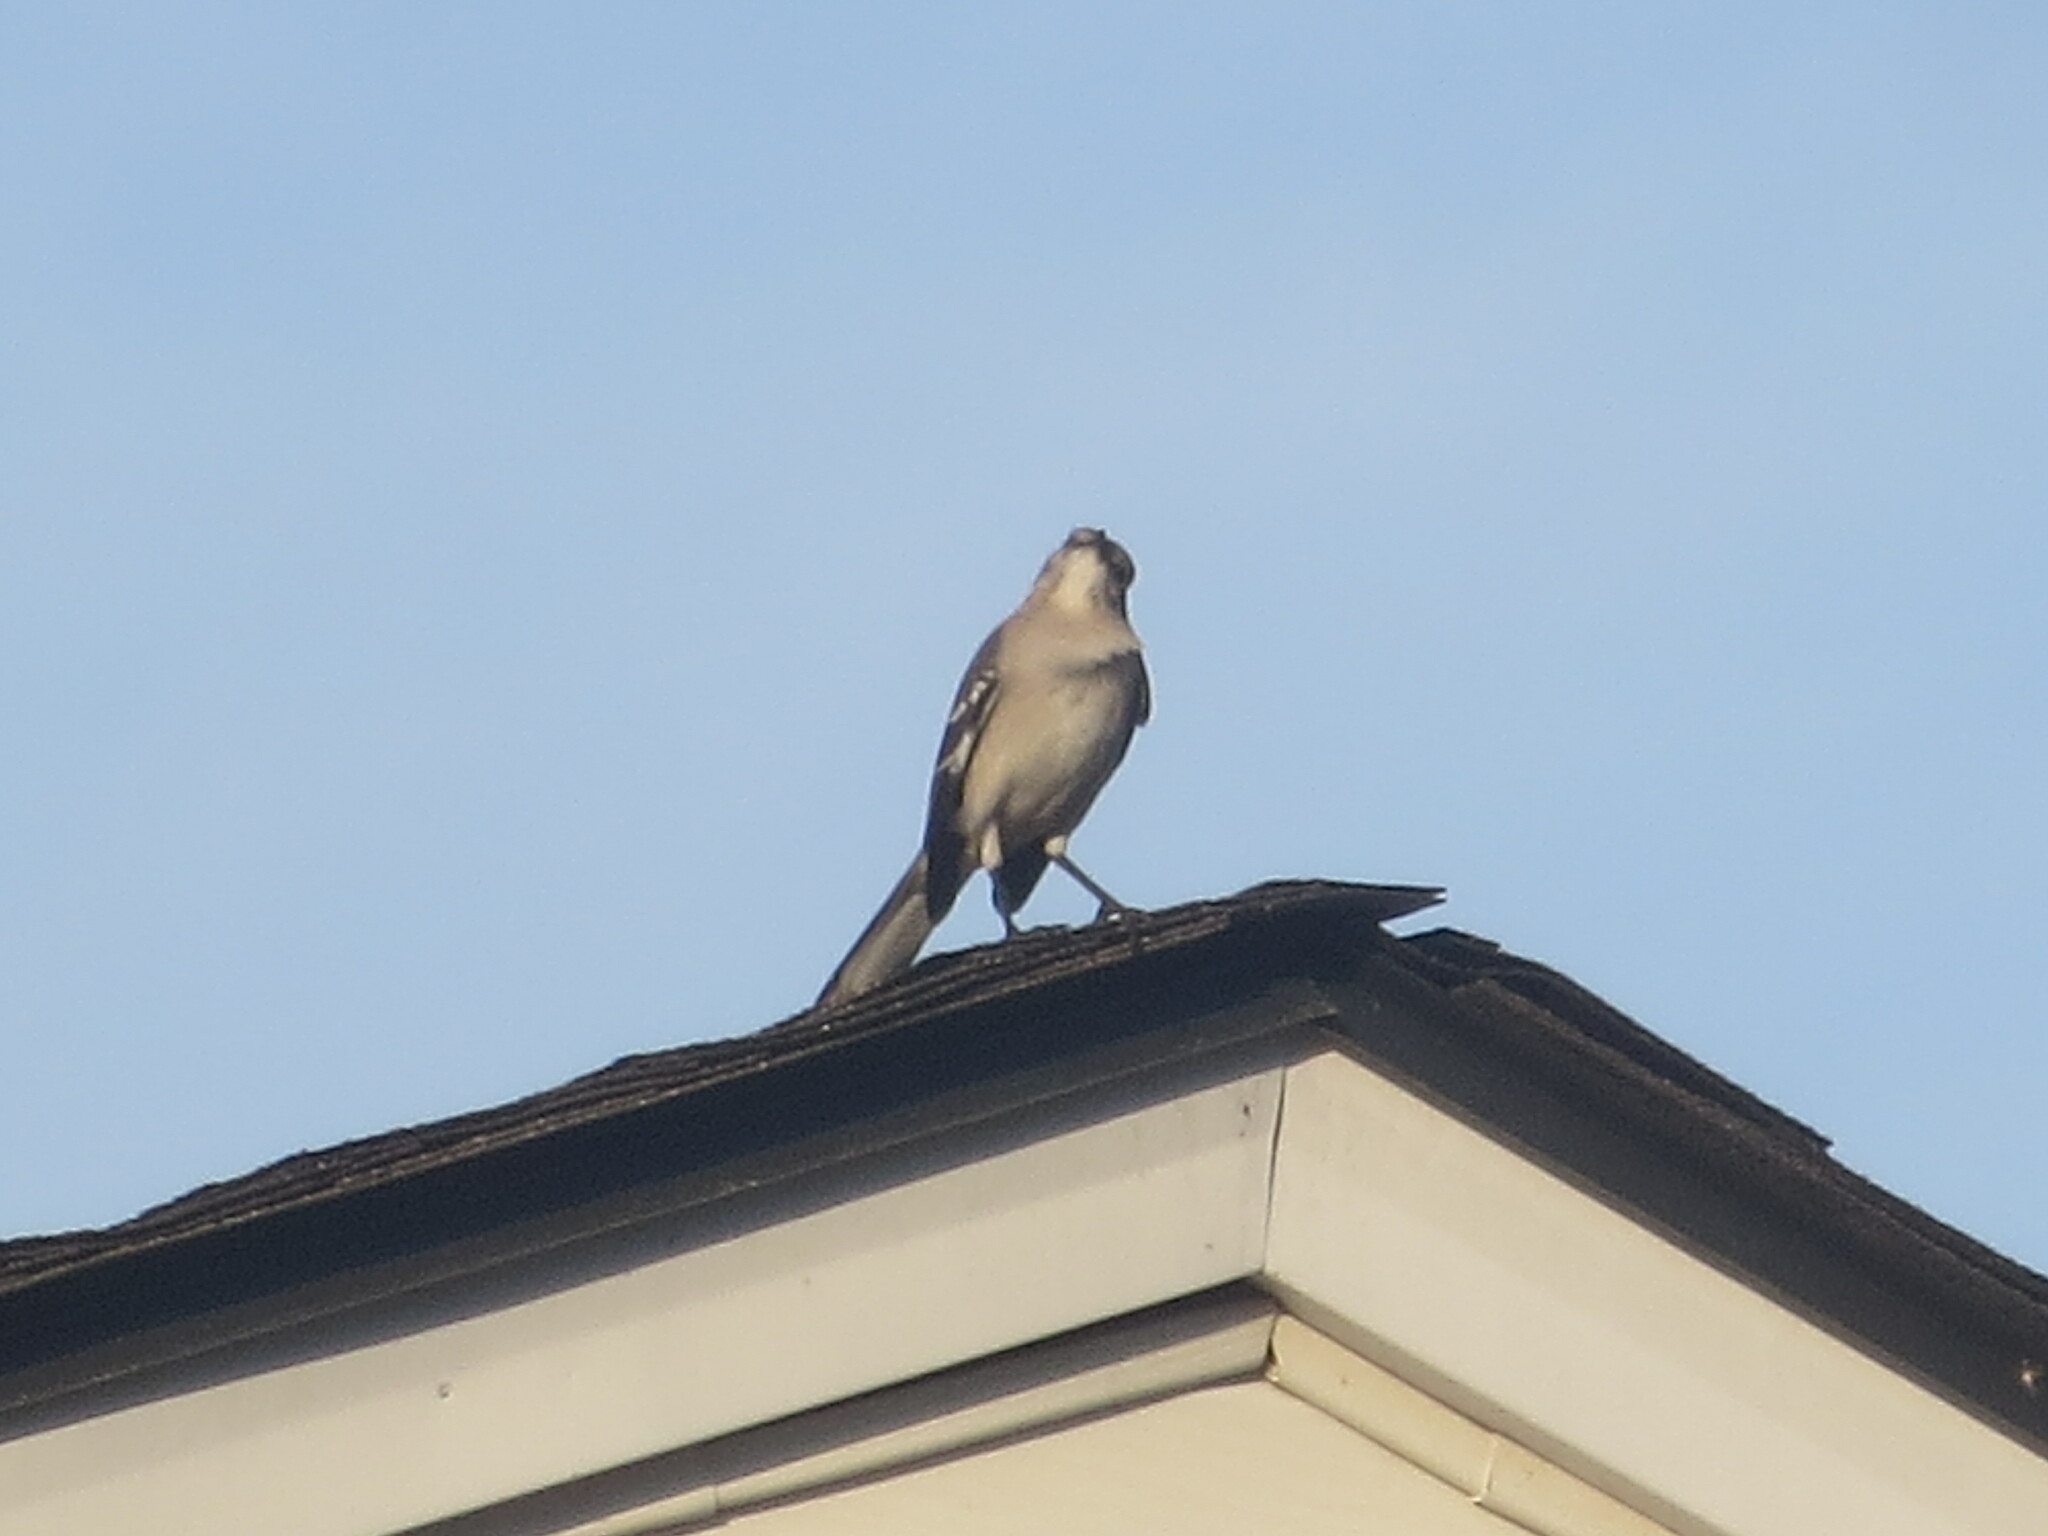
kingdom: Animalia
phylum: Chordata
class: Aves
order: Passeriformes
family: Mimidae
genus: Mimus
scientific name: Mimus polyglottos
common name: Northern mockingbird
